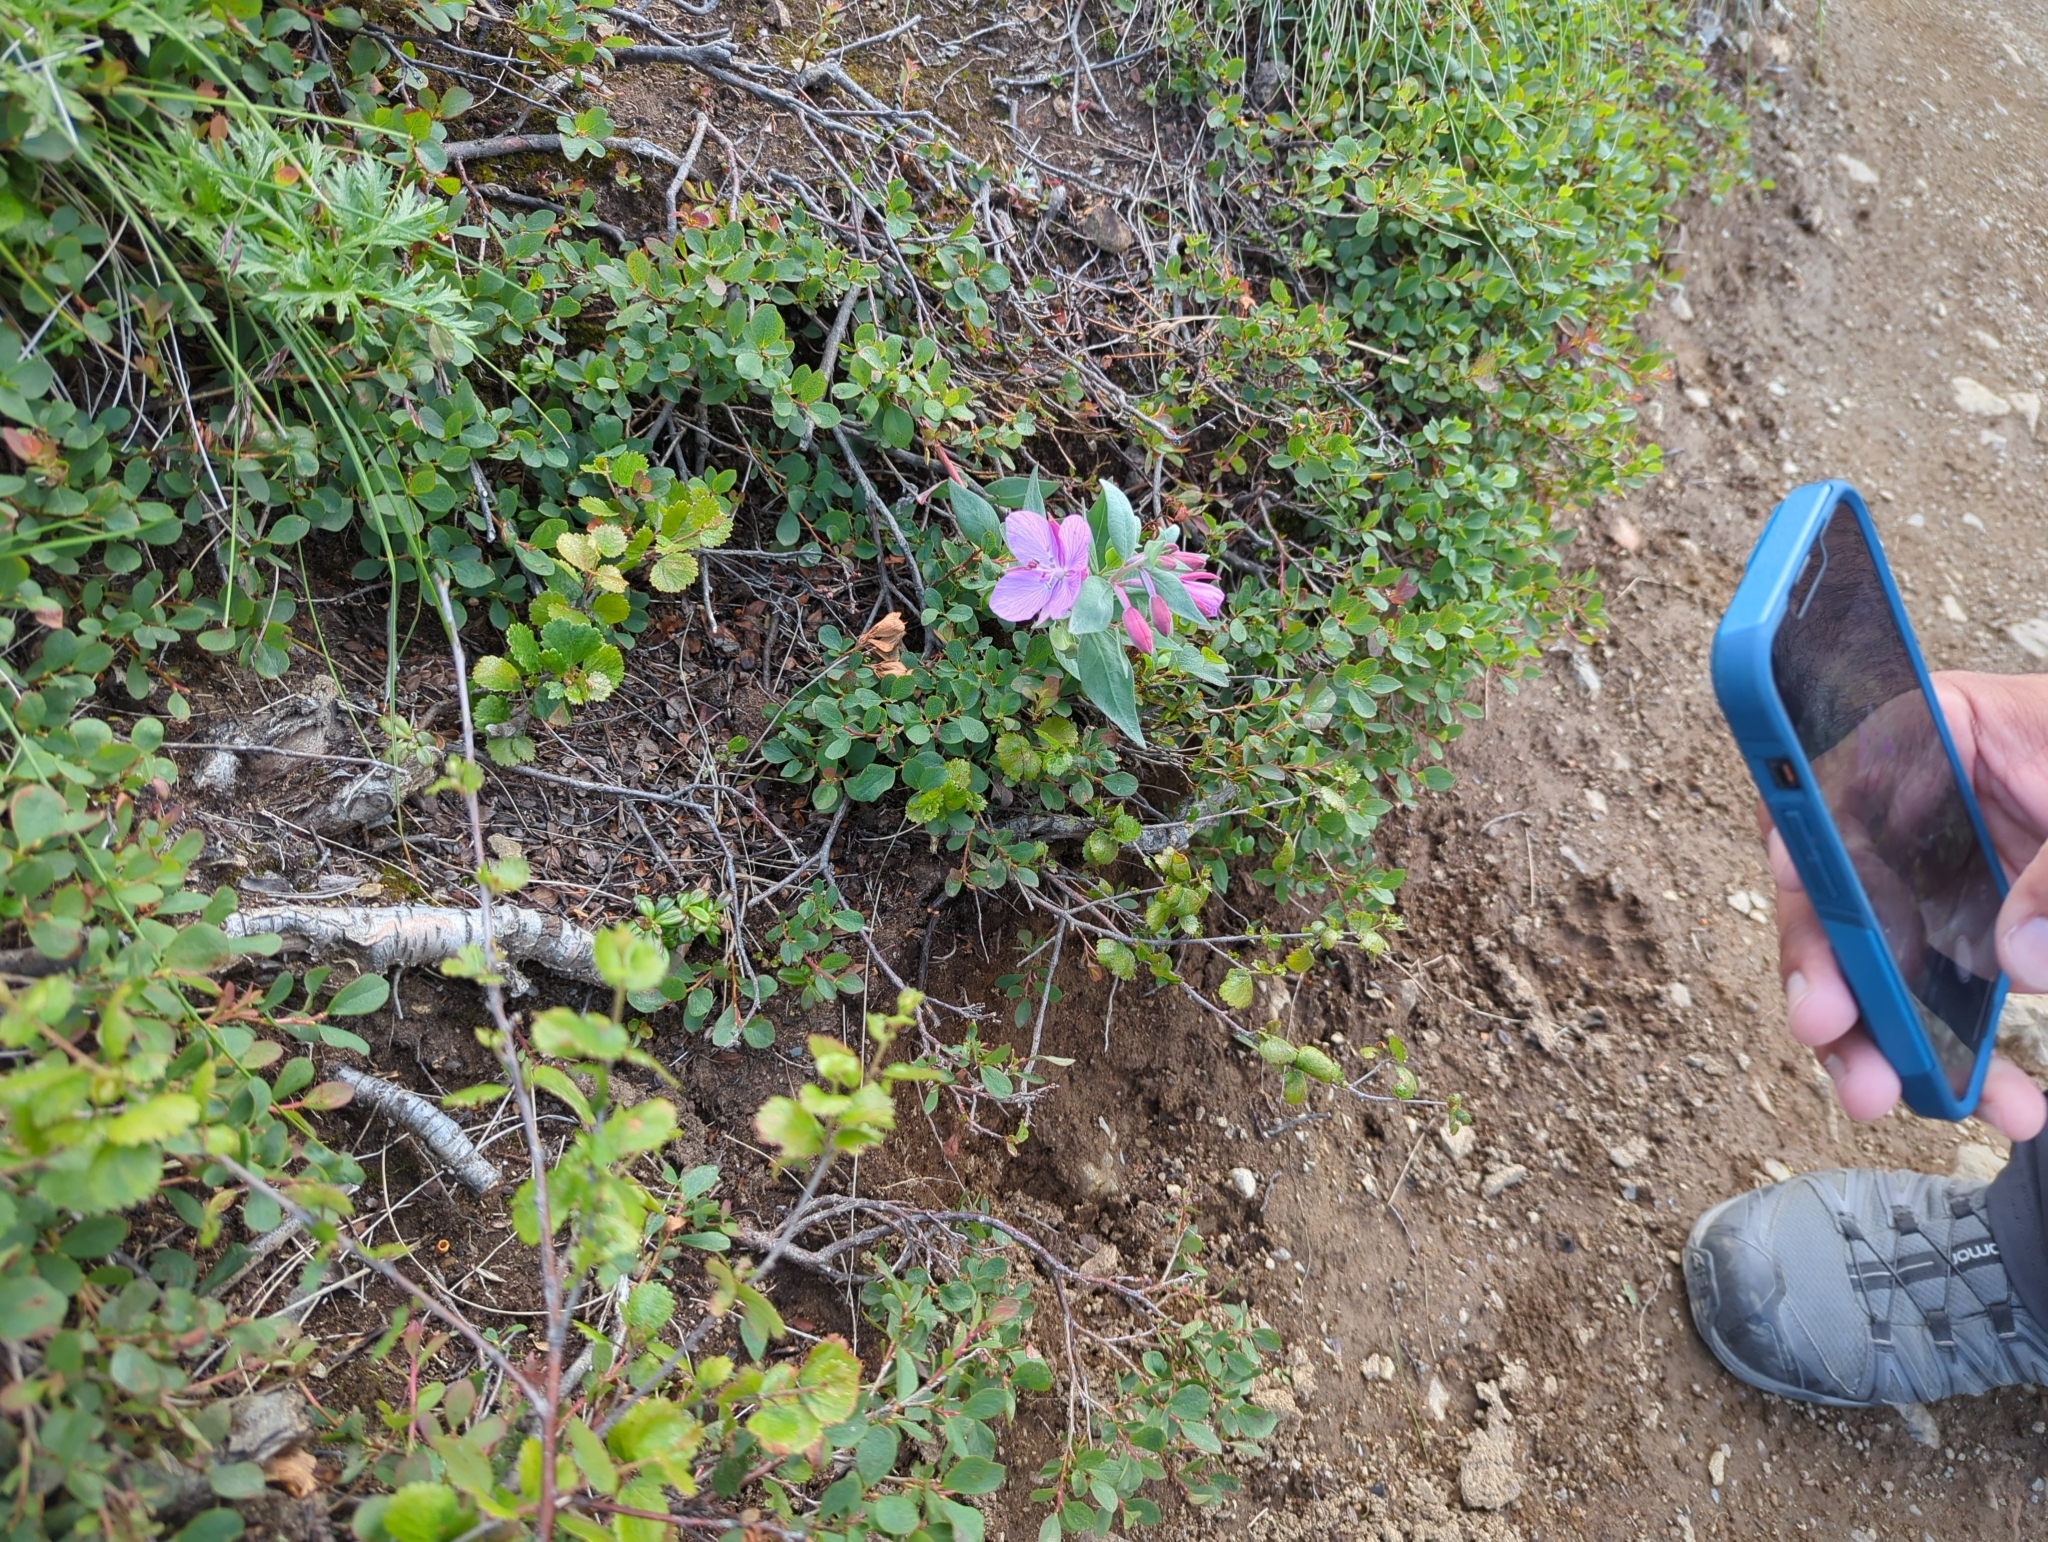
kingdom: Plantae
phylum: Tracheophyta
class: Magnoliopsida
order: Myrtales
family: Onagraceae
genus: Chamaenerion
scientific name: Chamaenerion latifolium
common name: Dwarf fireweed
